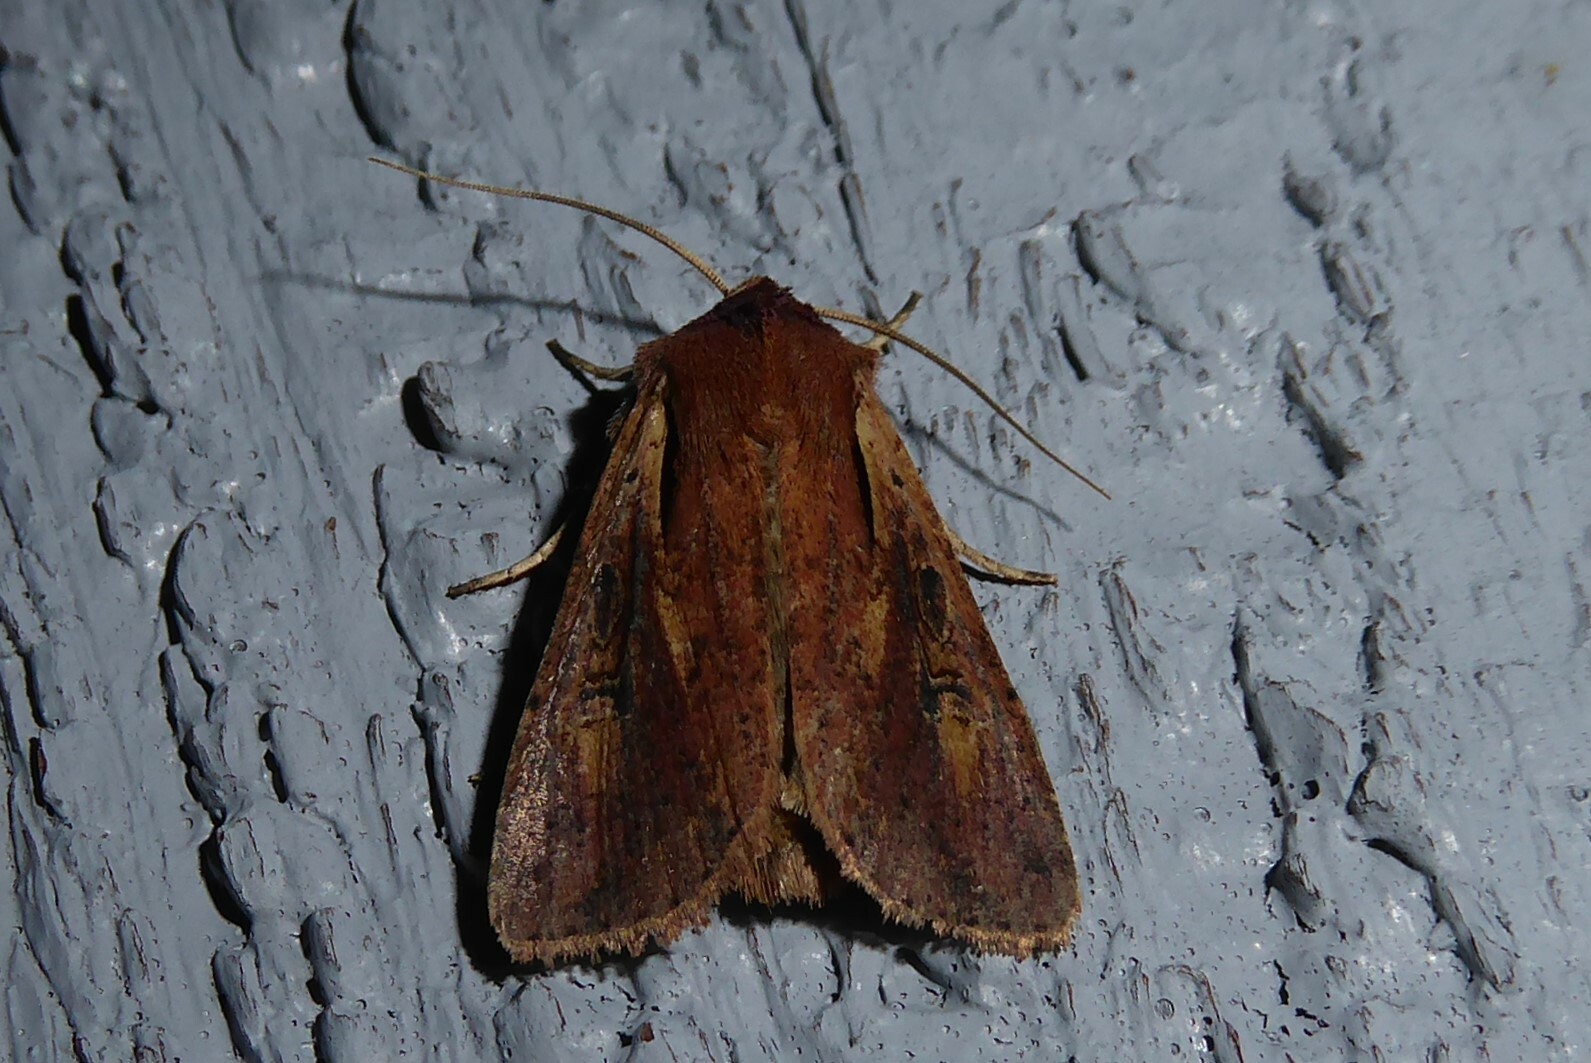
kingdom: Animalia
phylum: Arthropoda
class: Insecta
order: Lepidoptera
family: Noctuidae
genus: Ichneutica
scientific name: Ichneutica atristriga
